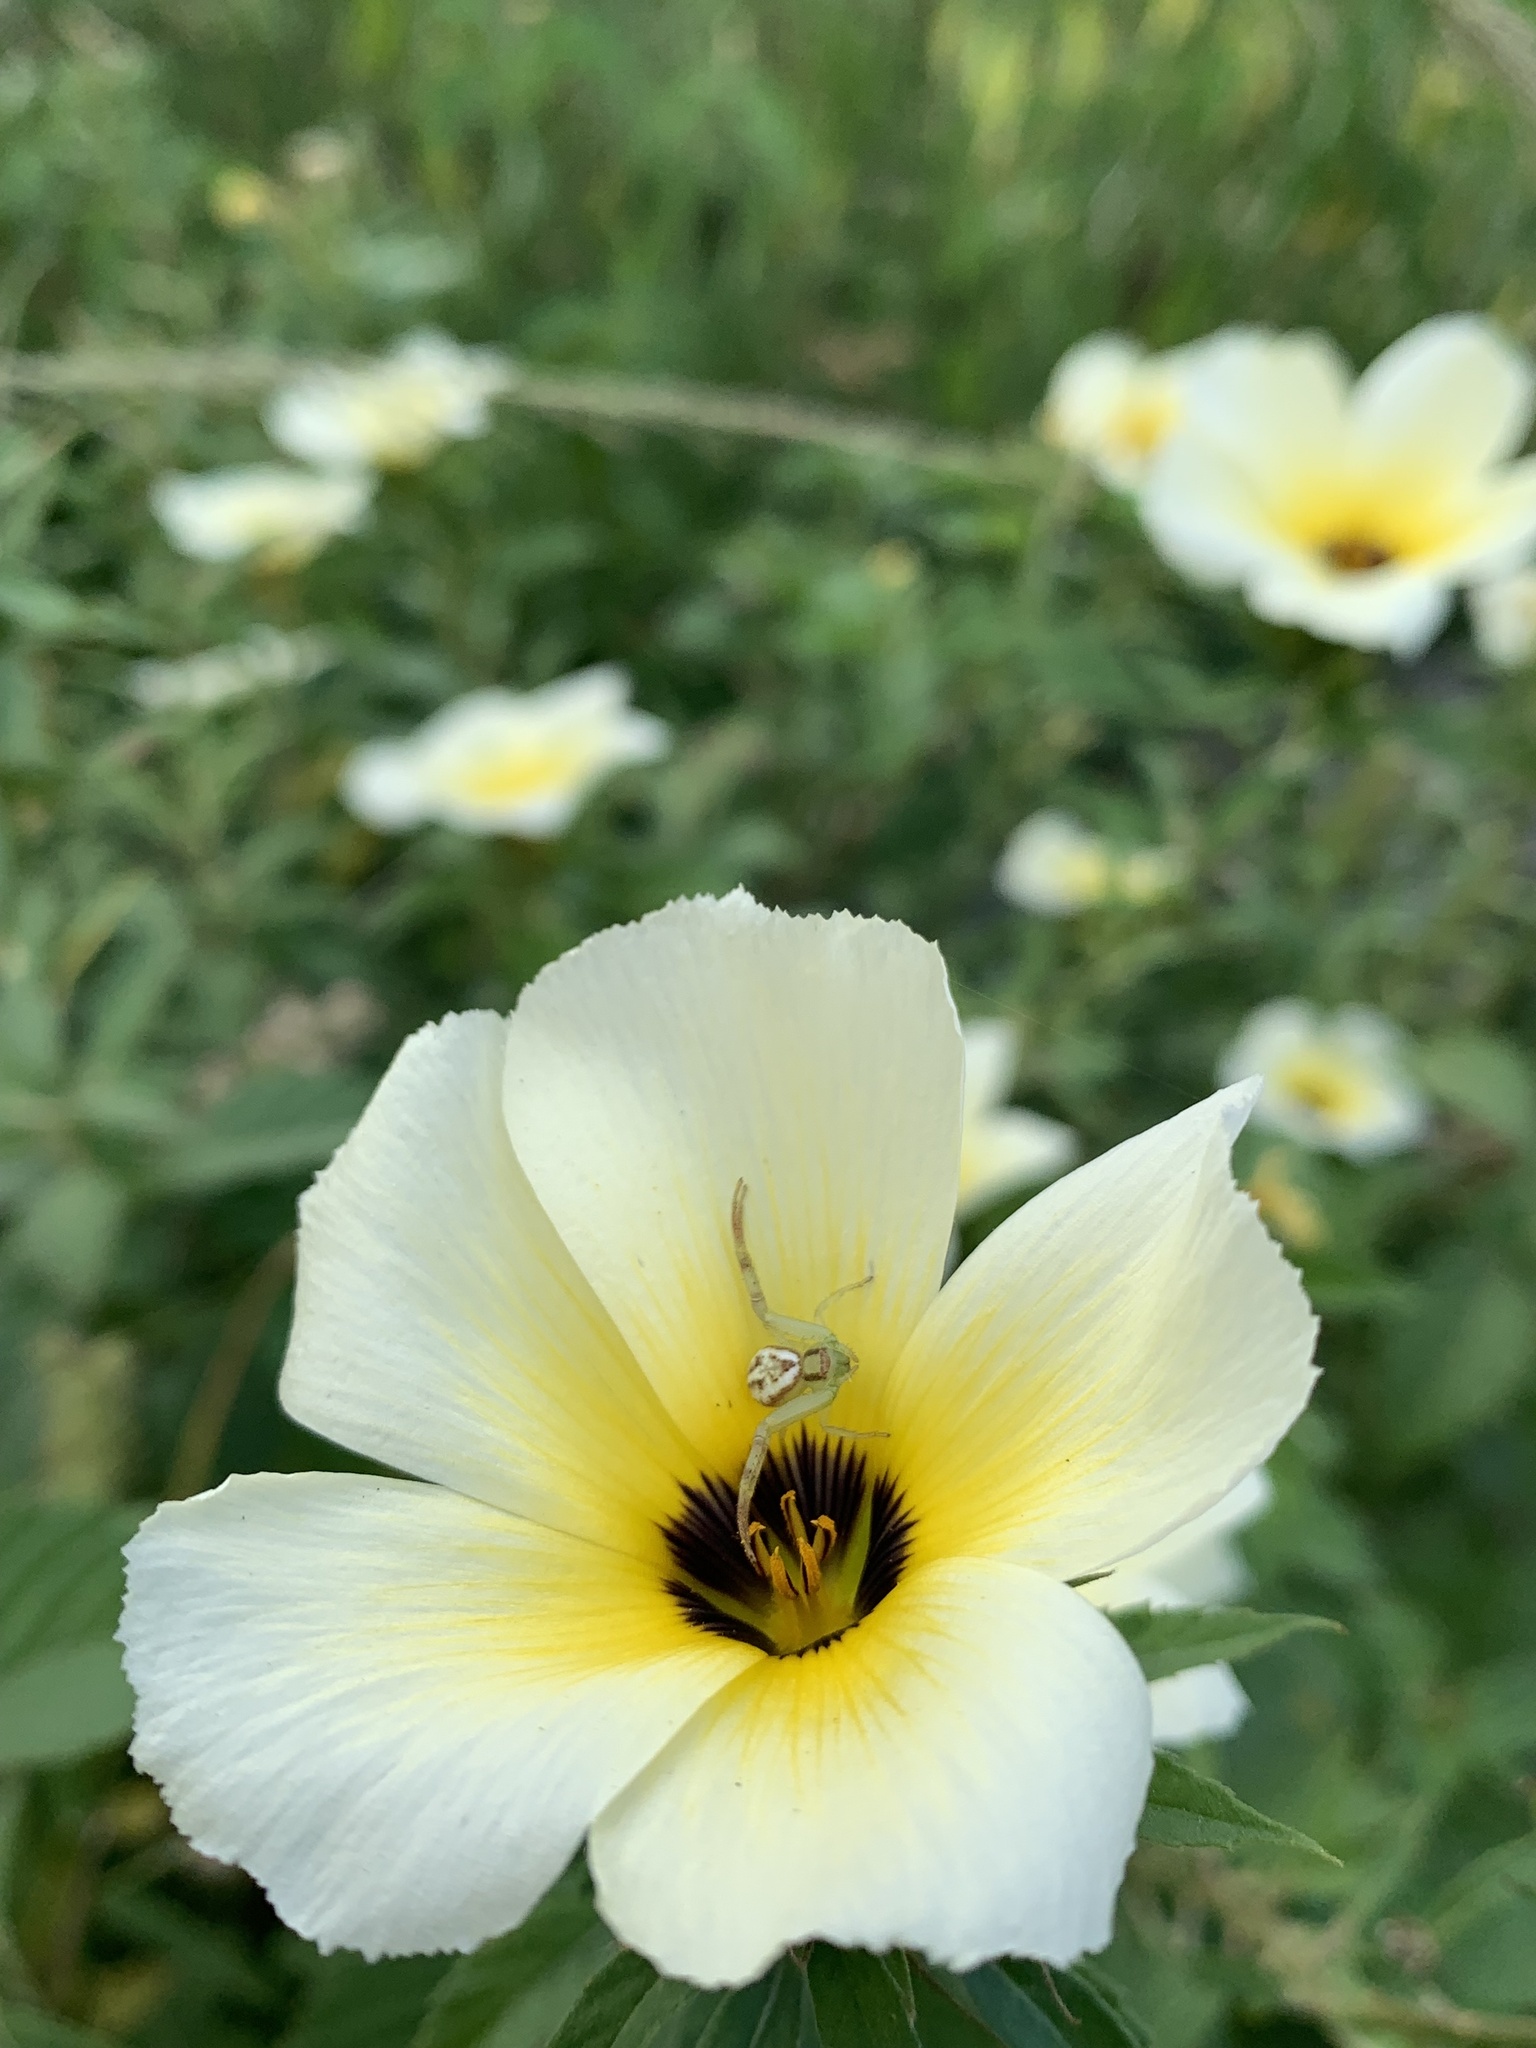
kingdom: Animalia
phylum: Arthropoda
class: Arachnida
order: Araneae
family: Thomisidae
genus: Misumenops
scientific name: Misumenops maculissparsus
